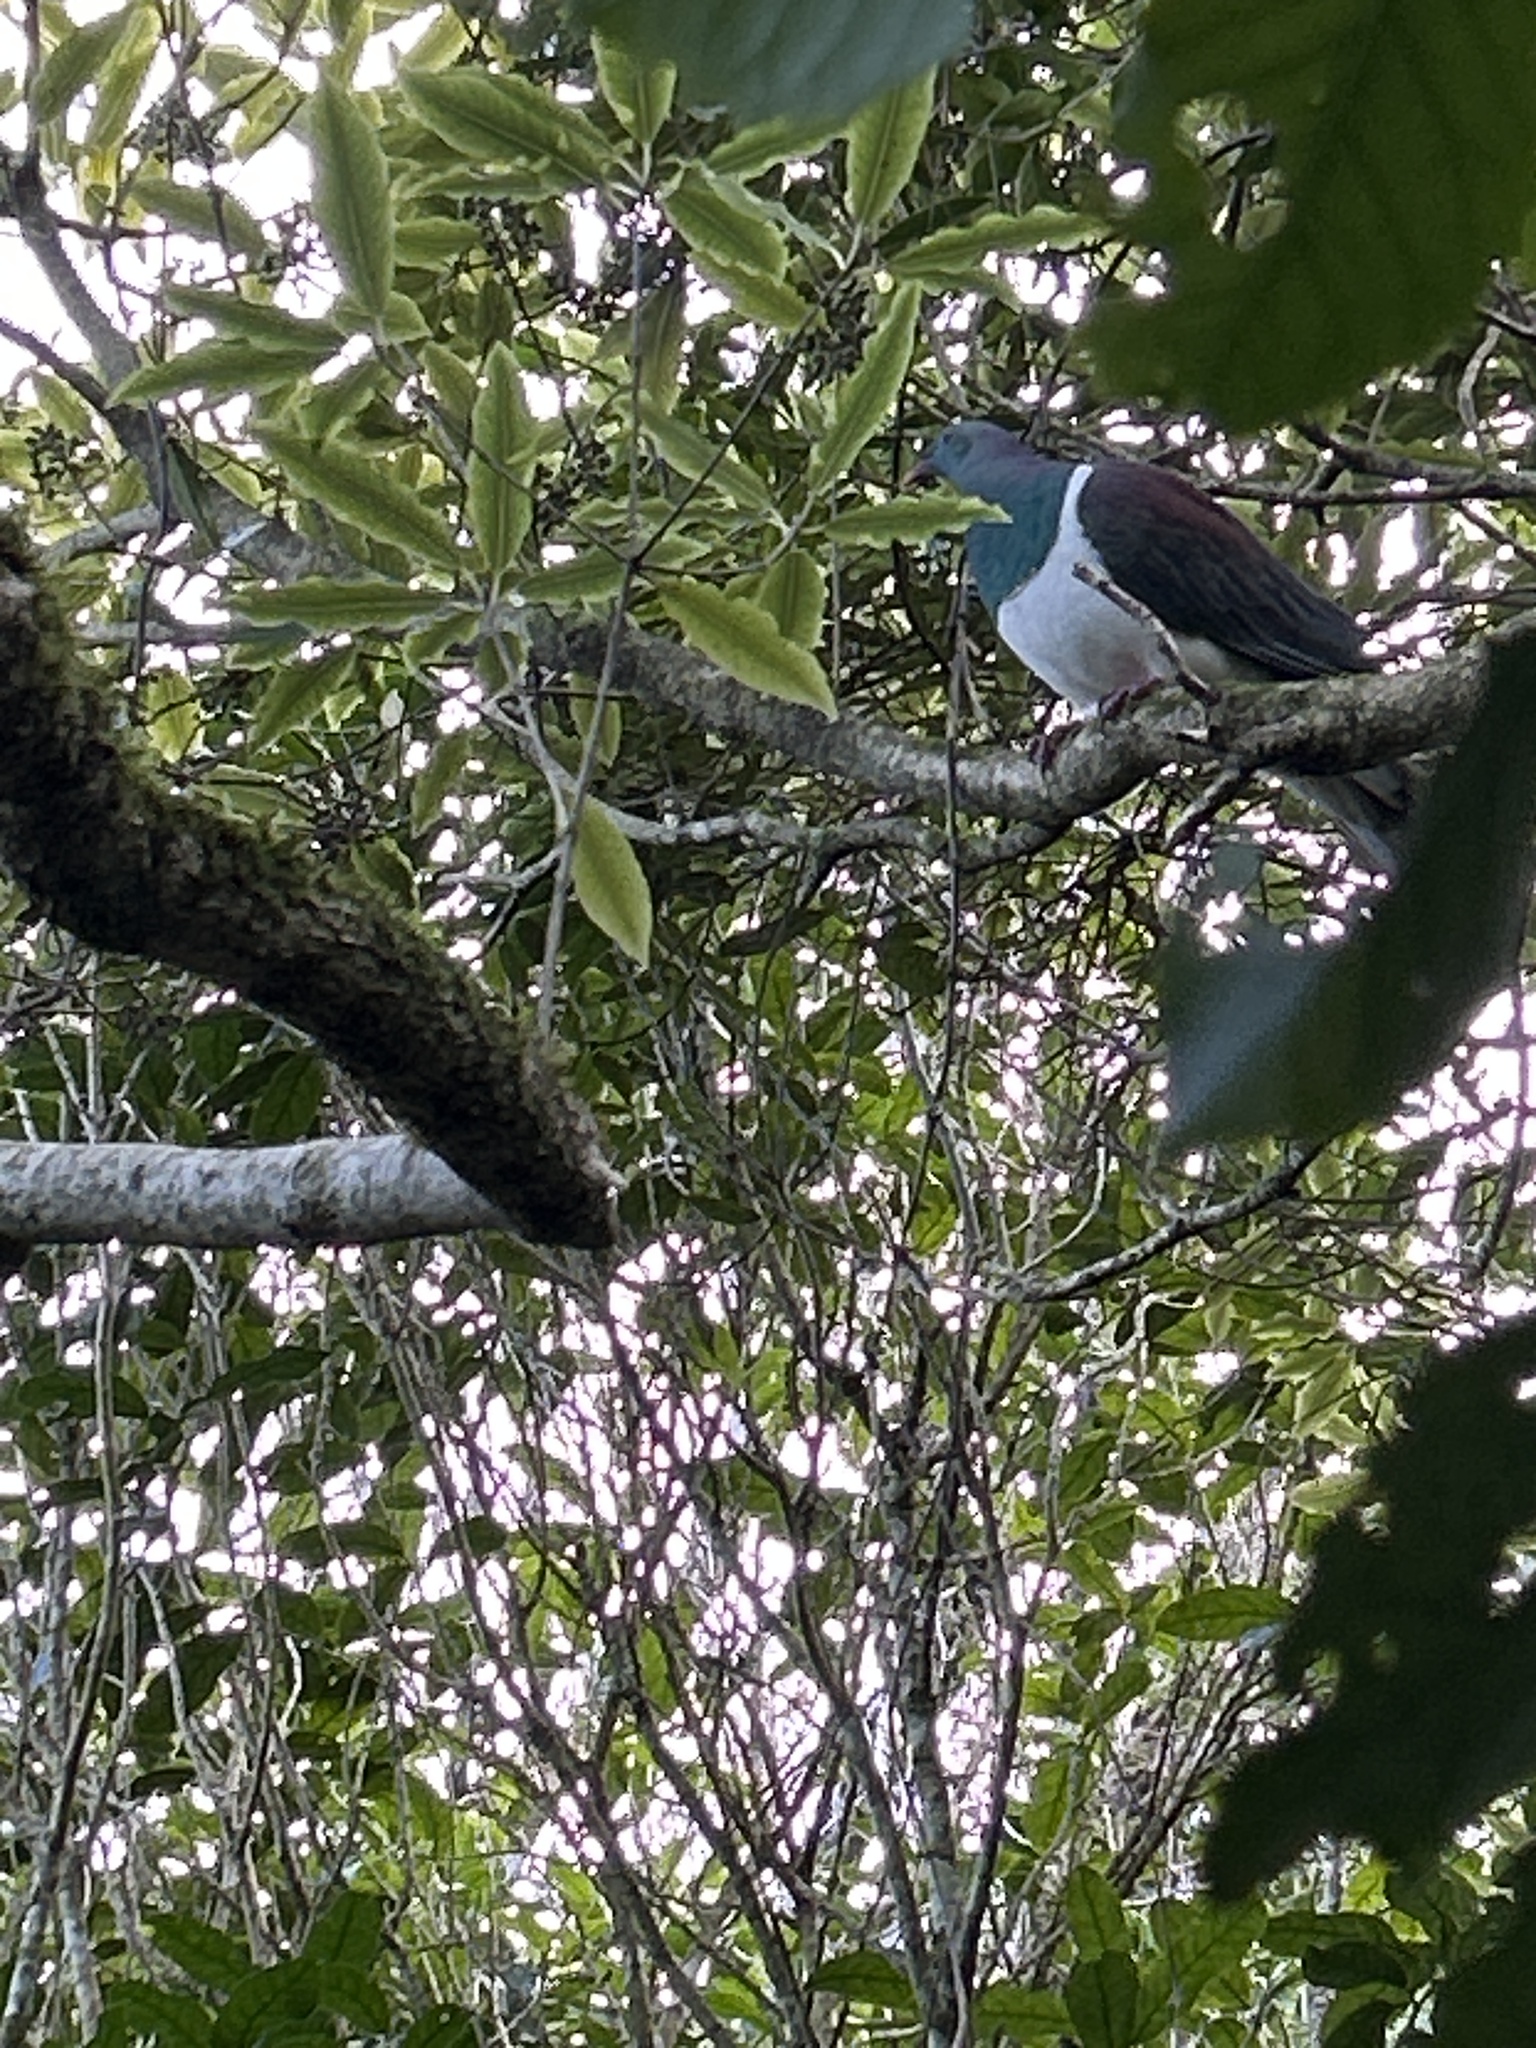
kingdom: Animalia
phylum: Chordata
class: Aves
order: Columbiformes
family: Columbidae
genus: Hemiphaga
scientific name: Hemiphaga novaeseelandiae
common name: New zealand pigeon
